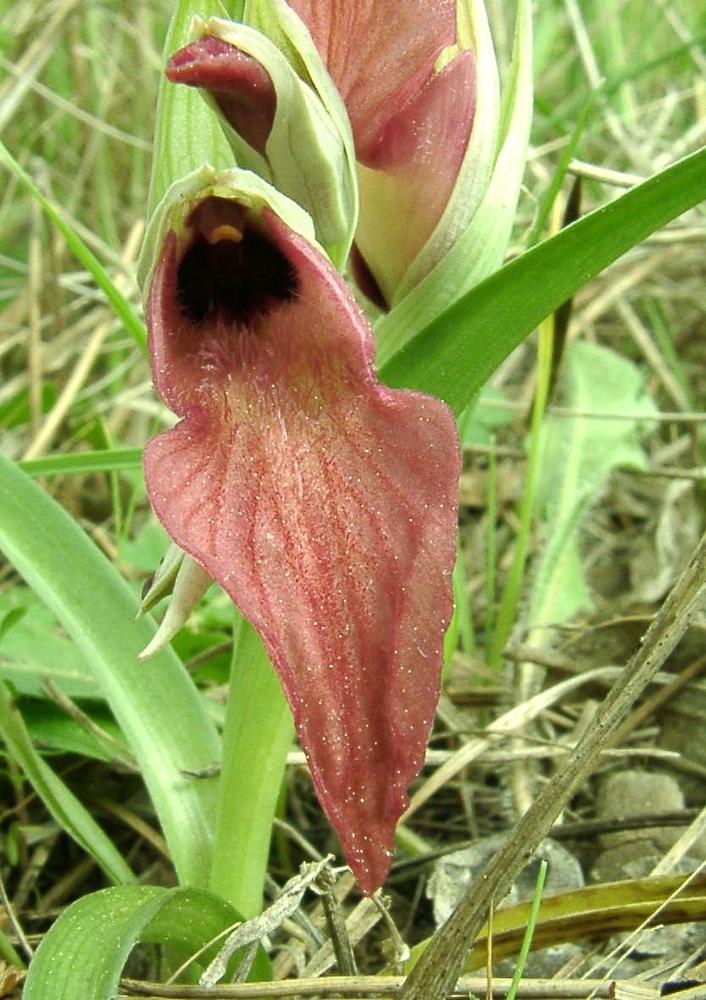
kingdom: Plantae
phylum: Tracheophyta
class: Liliopsida
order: Asparagales
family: Orchidaceae
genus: Serapias
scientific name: Serapias neglecta
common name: Neglected serapias
